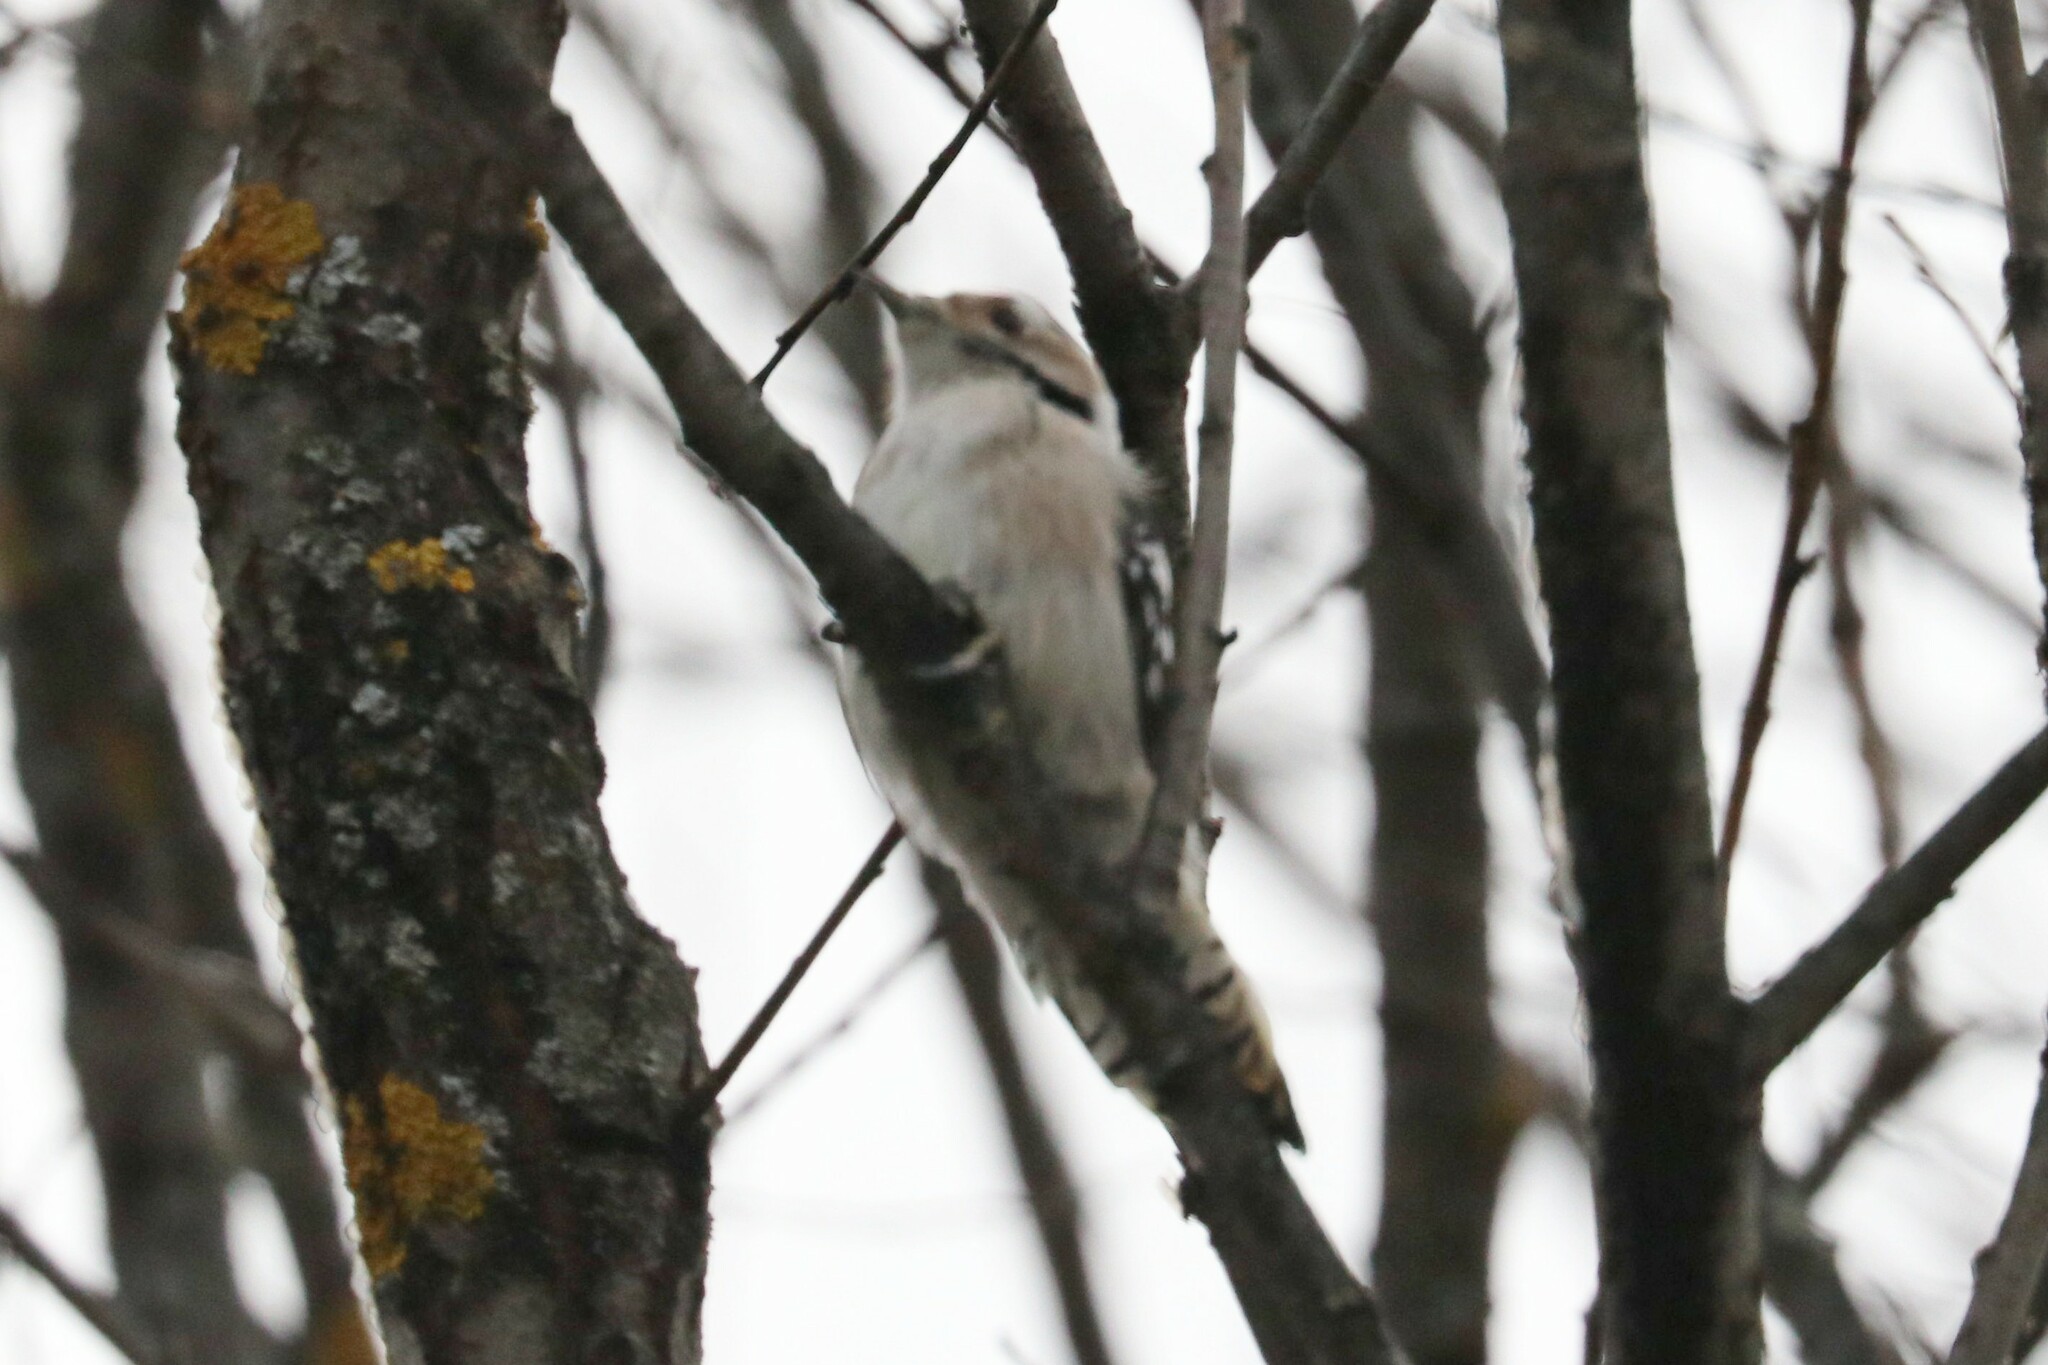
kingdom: Animalia
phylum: Chordata
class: Aves
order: Piciformes
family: Picidae
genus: Dryobates
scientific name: Dryobates minor
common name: Lesser spotted woodpecker
